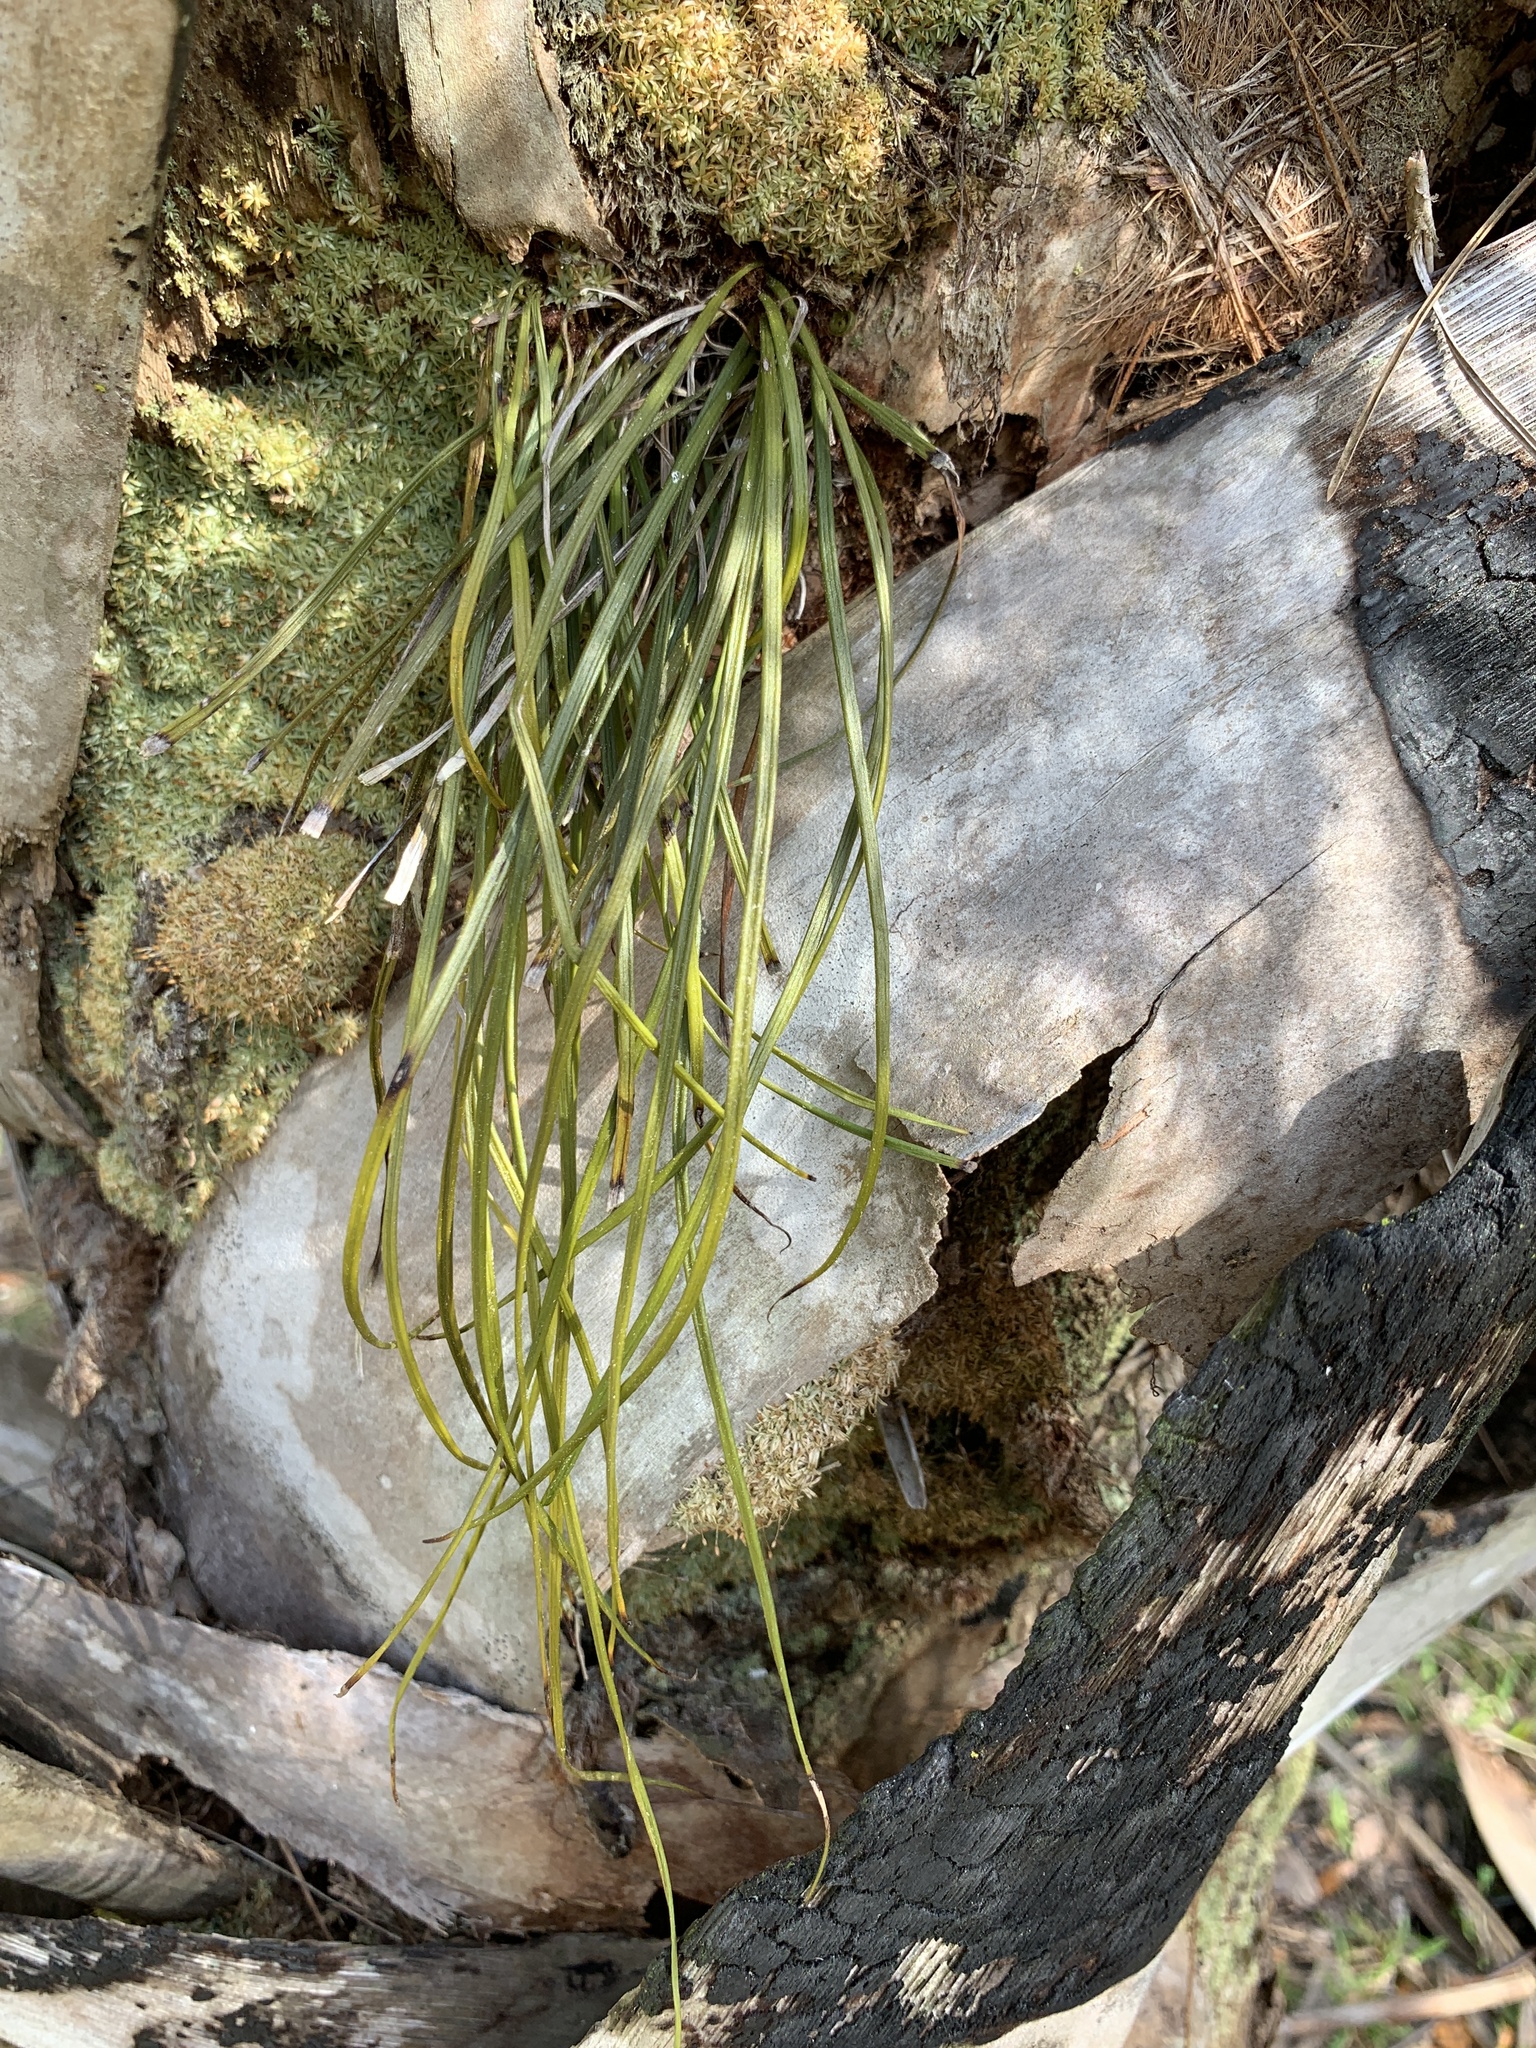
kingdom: Plantae
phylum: Tracheophyta
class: Polypodiopsida
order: Polypodiales
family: Pteridaceae
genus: Vittaria
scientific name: Vittaria lineata
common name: Shoestring fern
